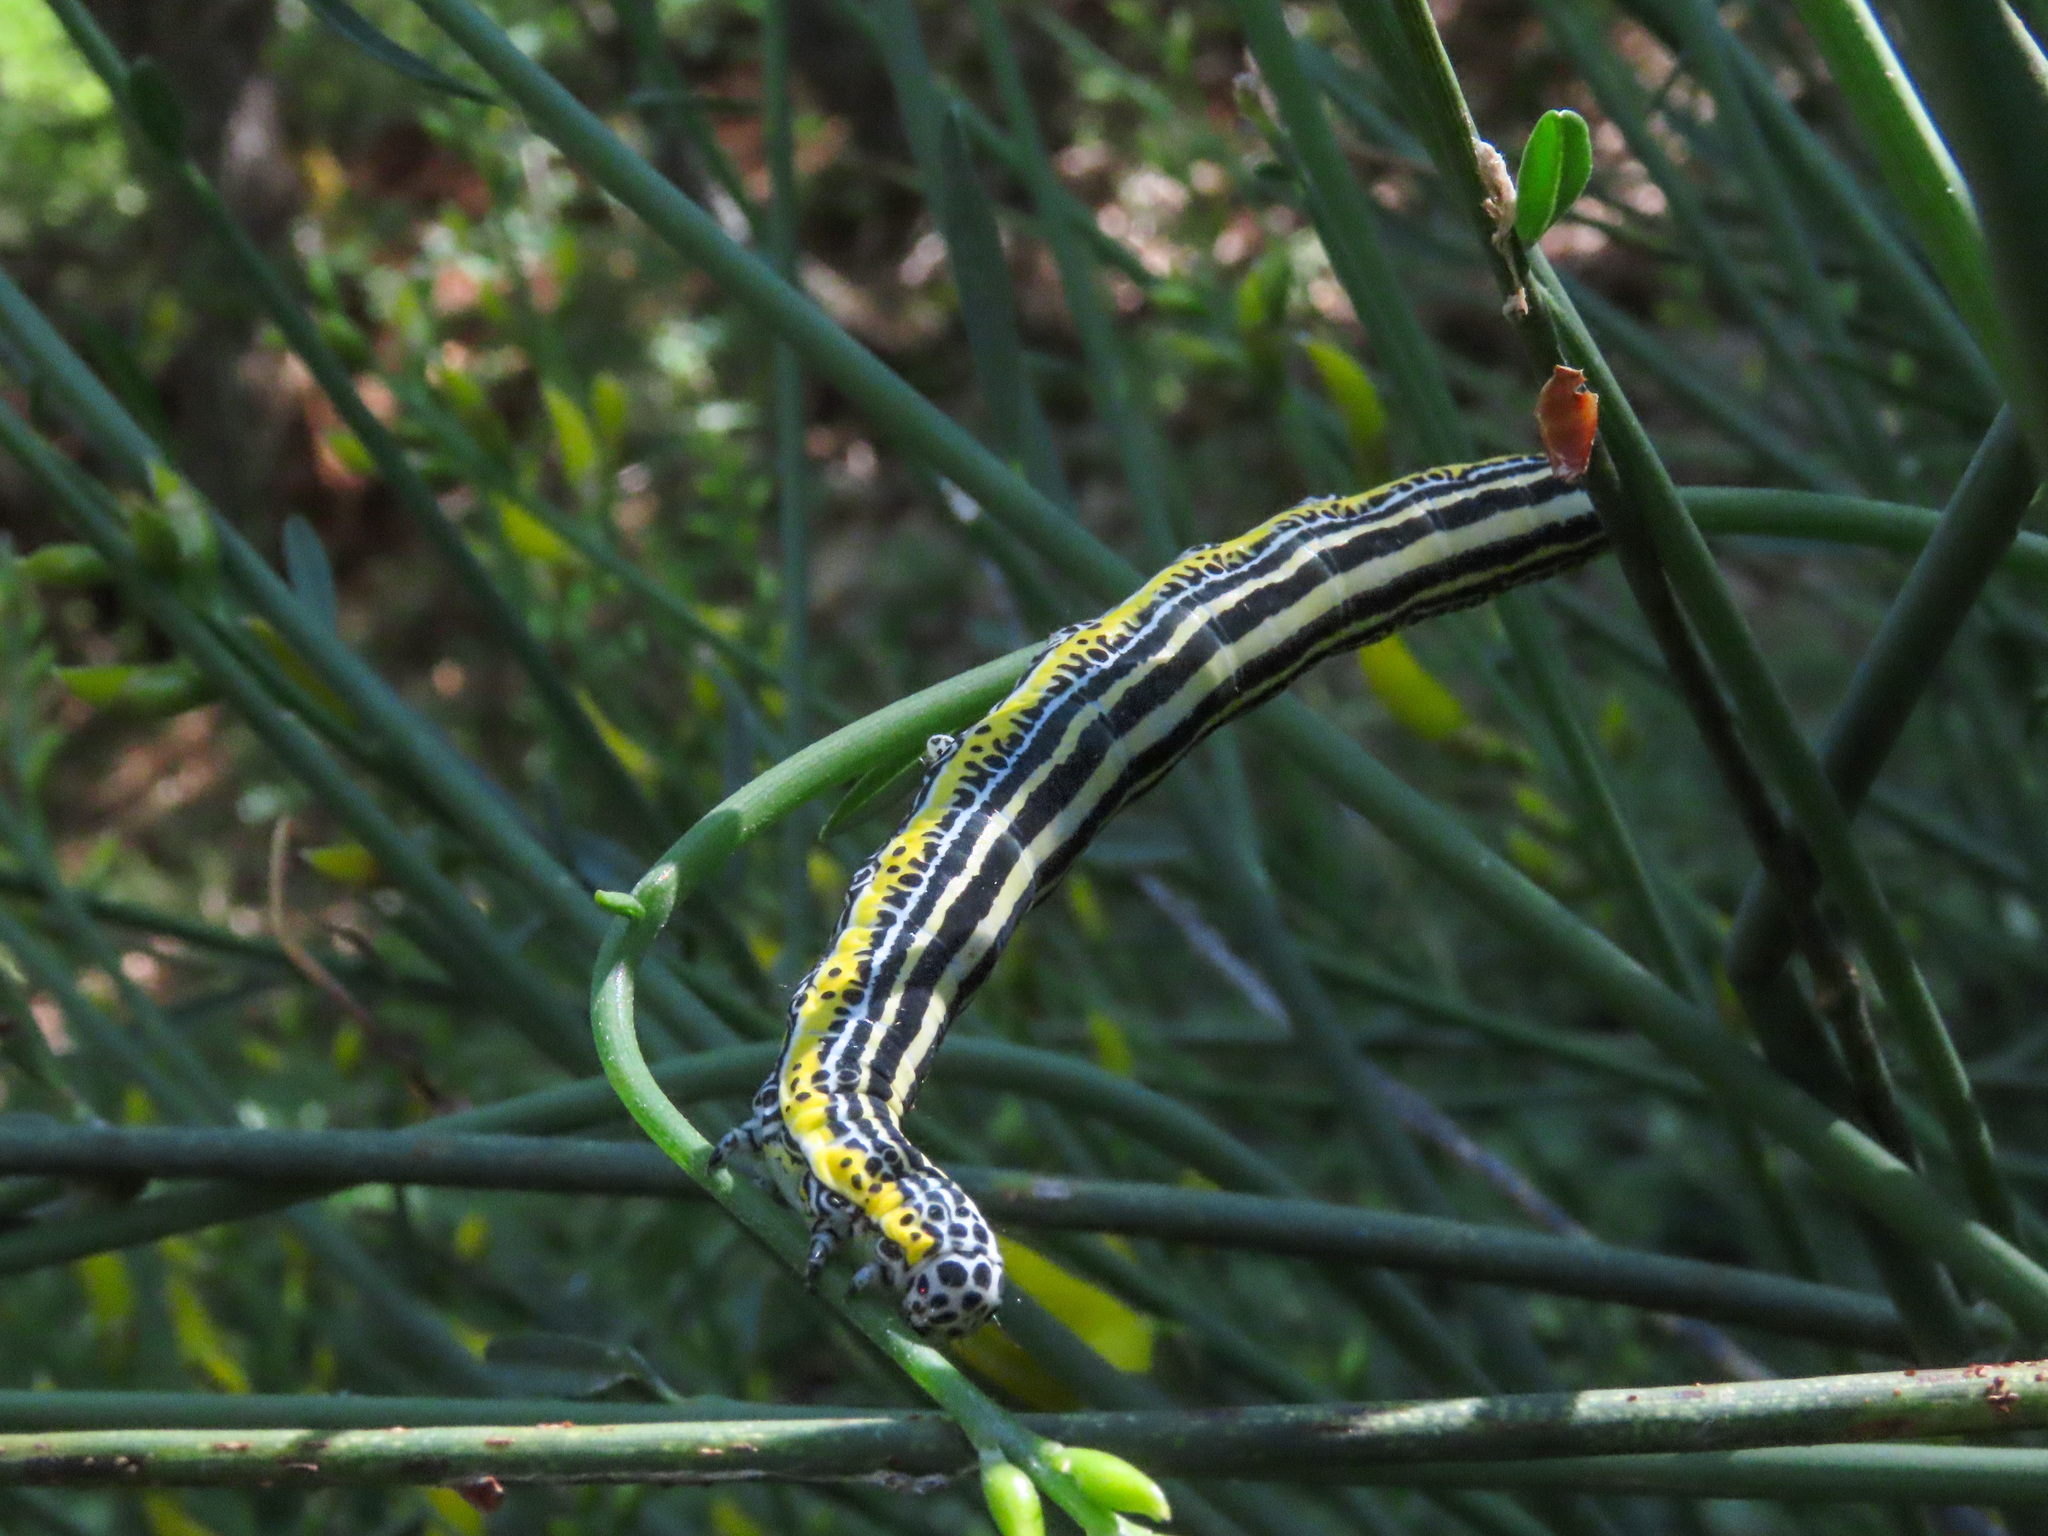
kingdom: Animalia
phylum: Arthropoda
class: Insecta
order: Lepidoptera
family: Erebidae
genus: Apopestes
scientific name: Apopestes spectrum
